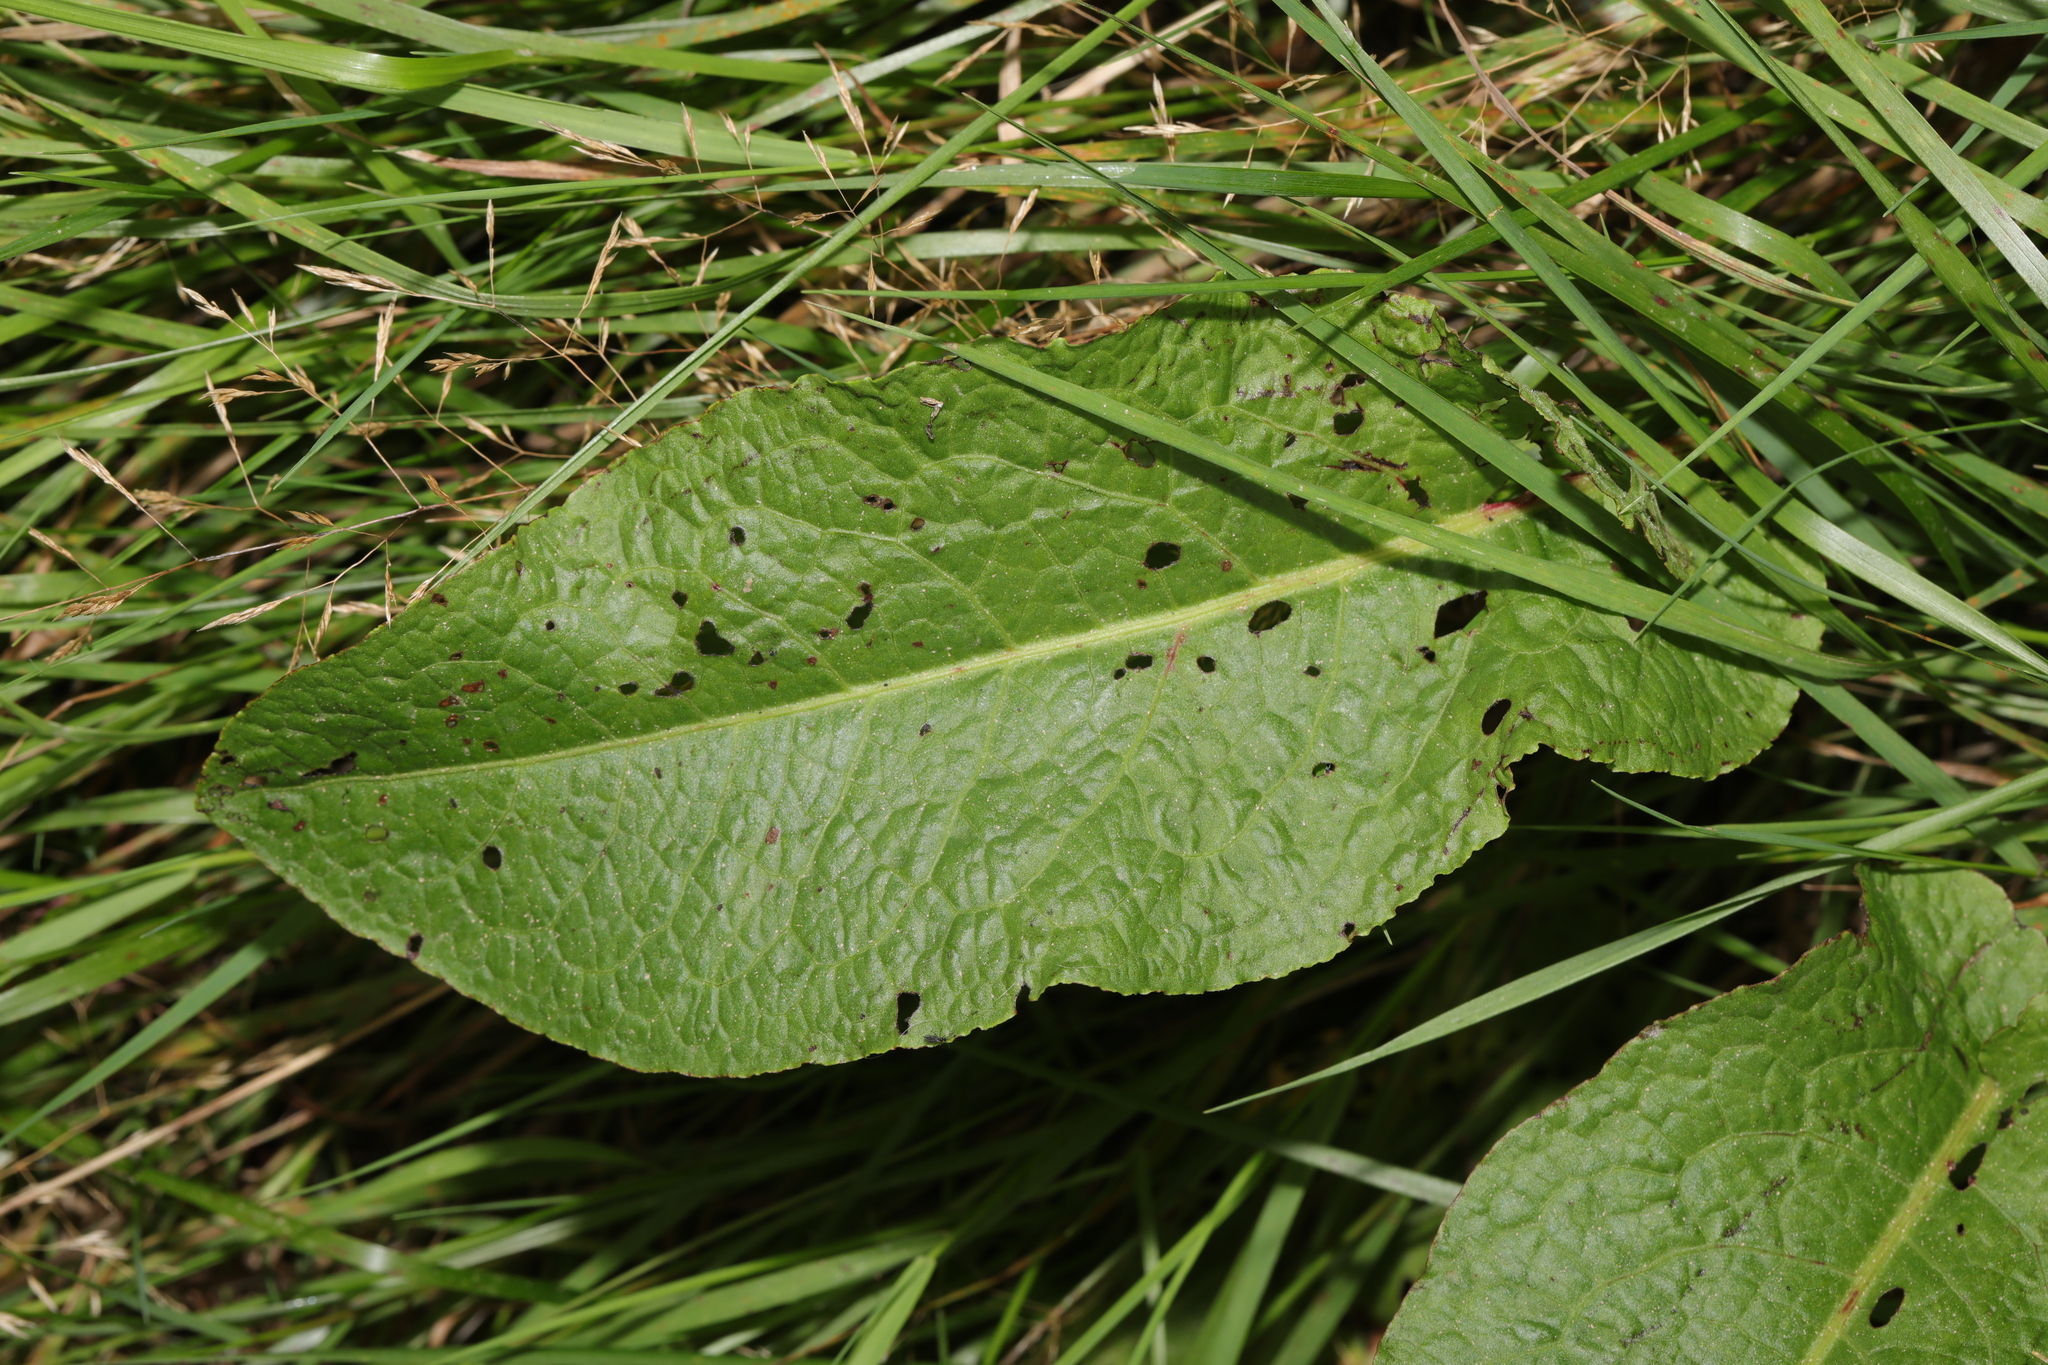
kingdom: Plantae
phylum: Tracheophyta
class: Magnoliopsida
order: Caryophyllales
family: Polygonaceae
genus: Rumex
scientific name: Rumex obtusifolius
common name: Bitter dock
